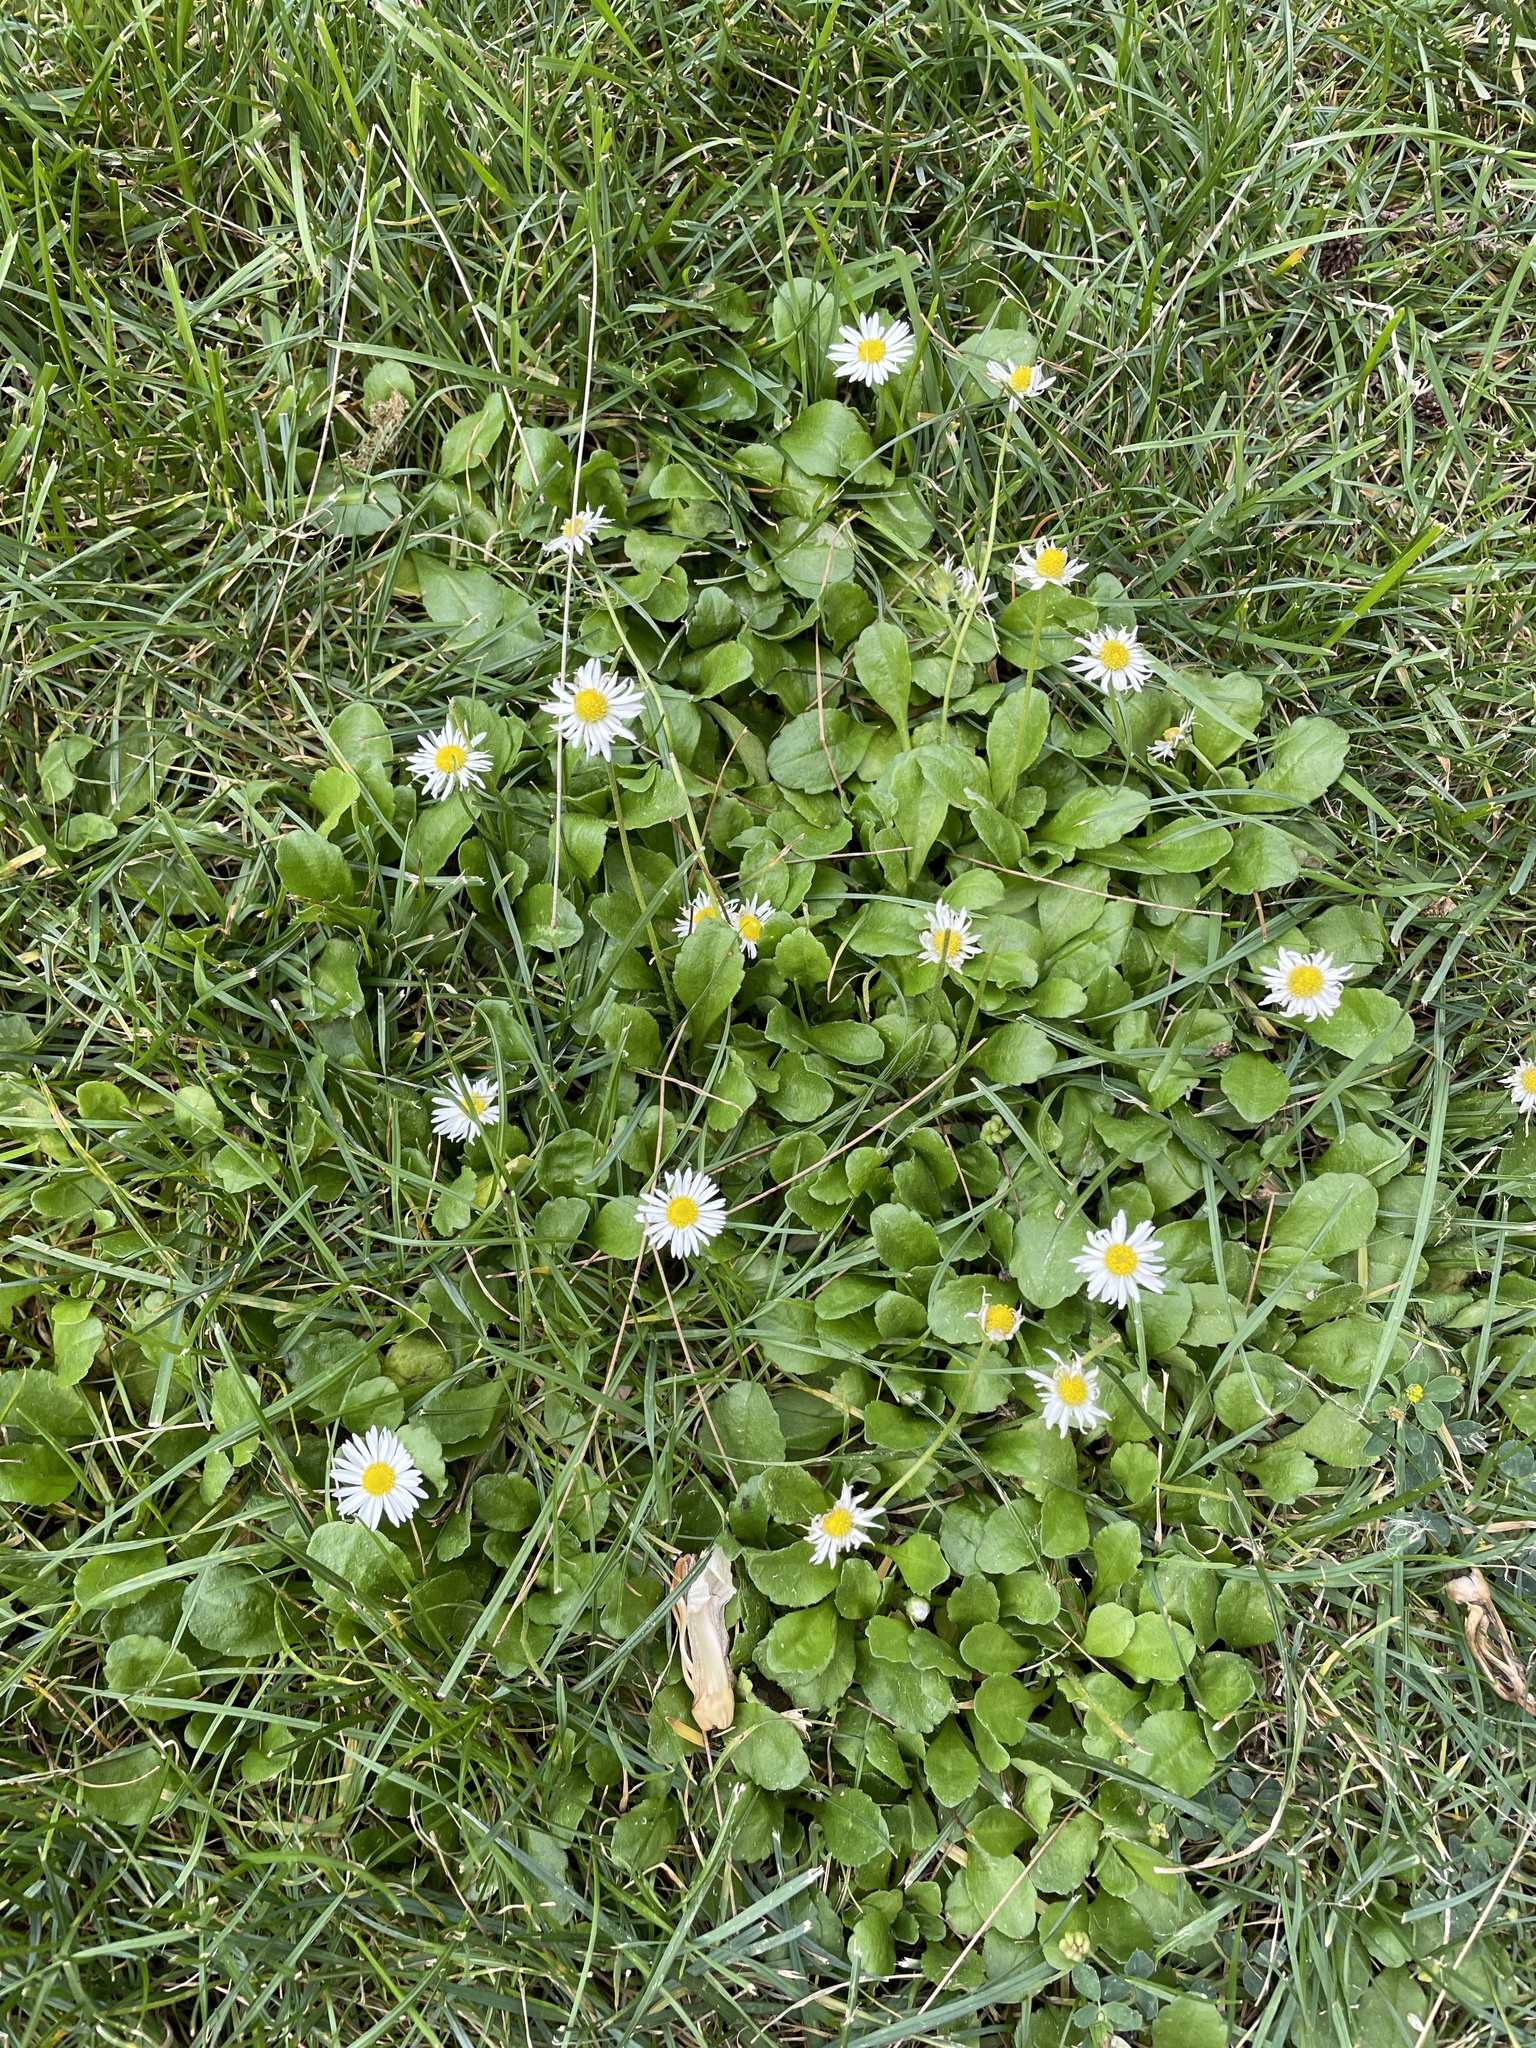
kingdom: Plantae
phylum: Tracheophyta
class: Magnoliopsida
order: Asterales
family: Asteraceae
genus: Bellis
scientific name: Bellis perennis
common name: Lawndaisy
